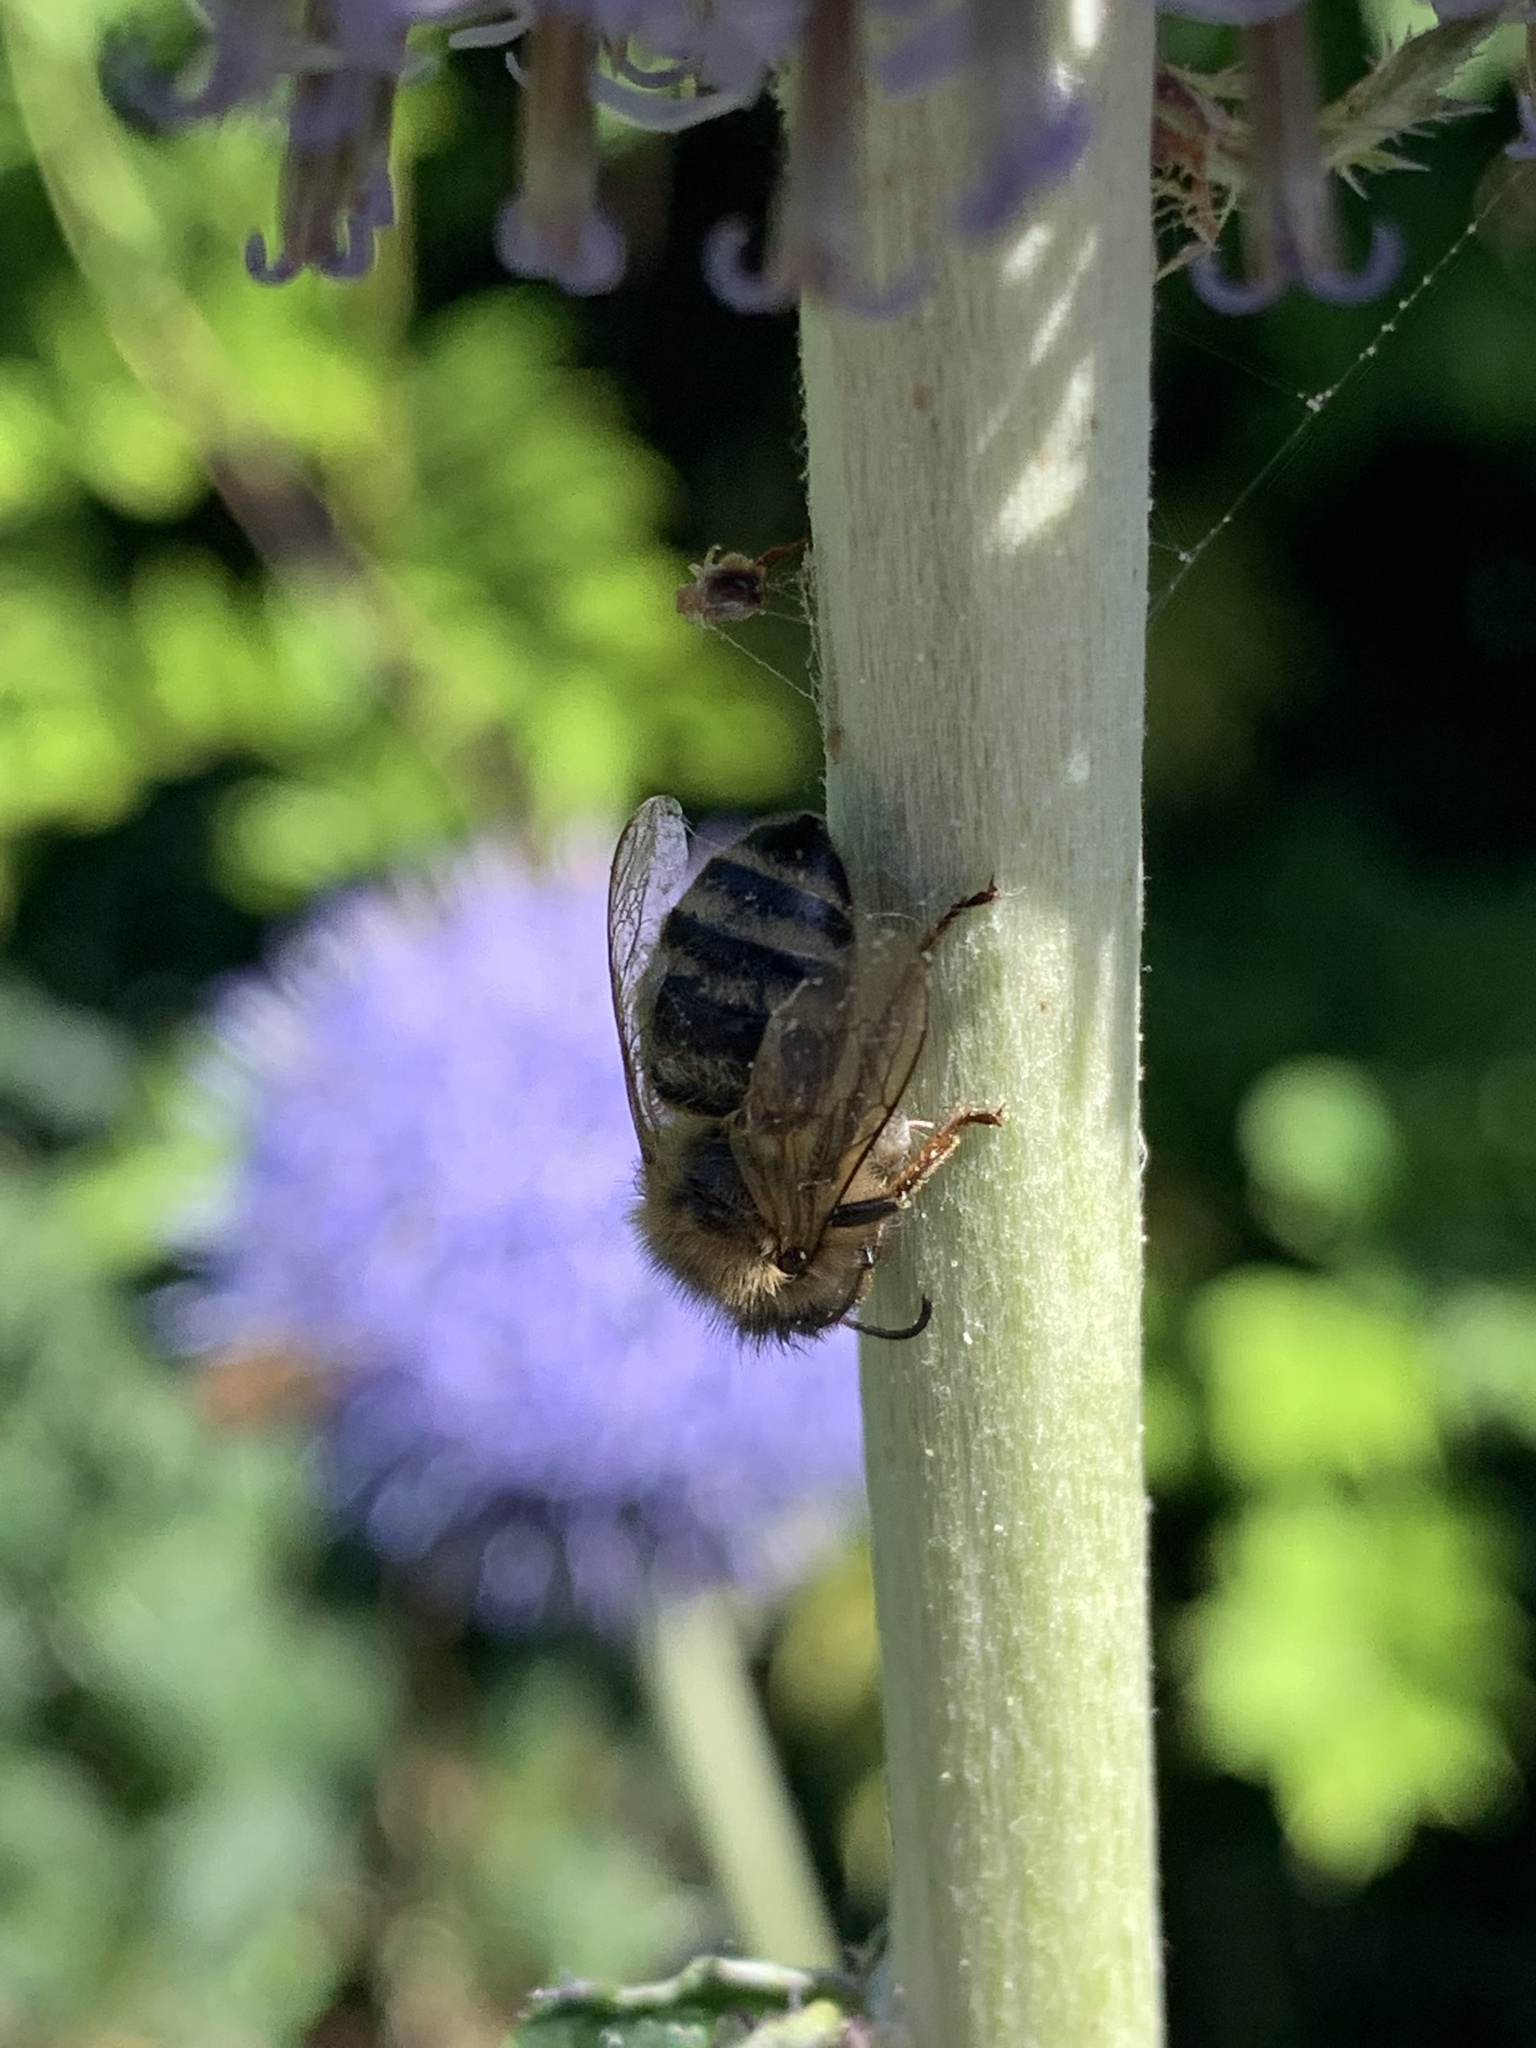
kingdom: Animalia
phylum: Arthropoda
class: Insecta
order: Hymenoptera
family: Apidae
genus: Apis
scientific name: Apis mellifera
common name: Honey bee
